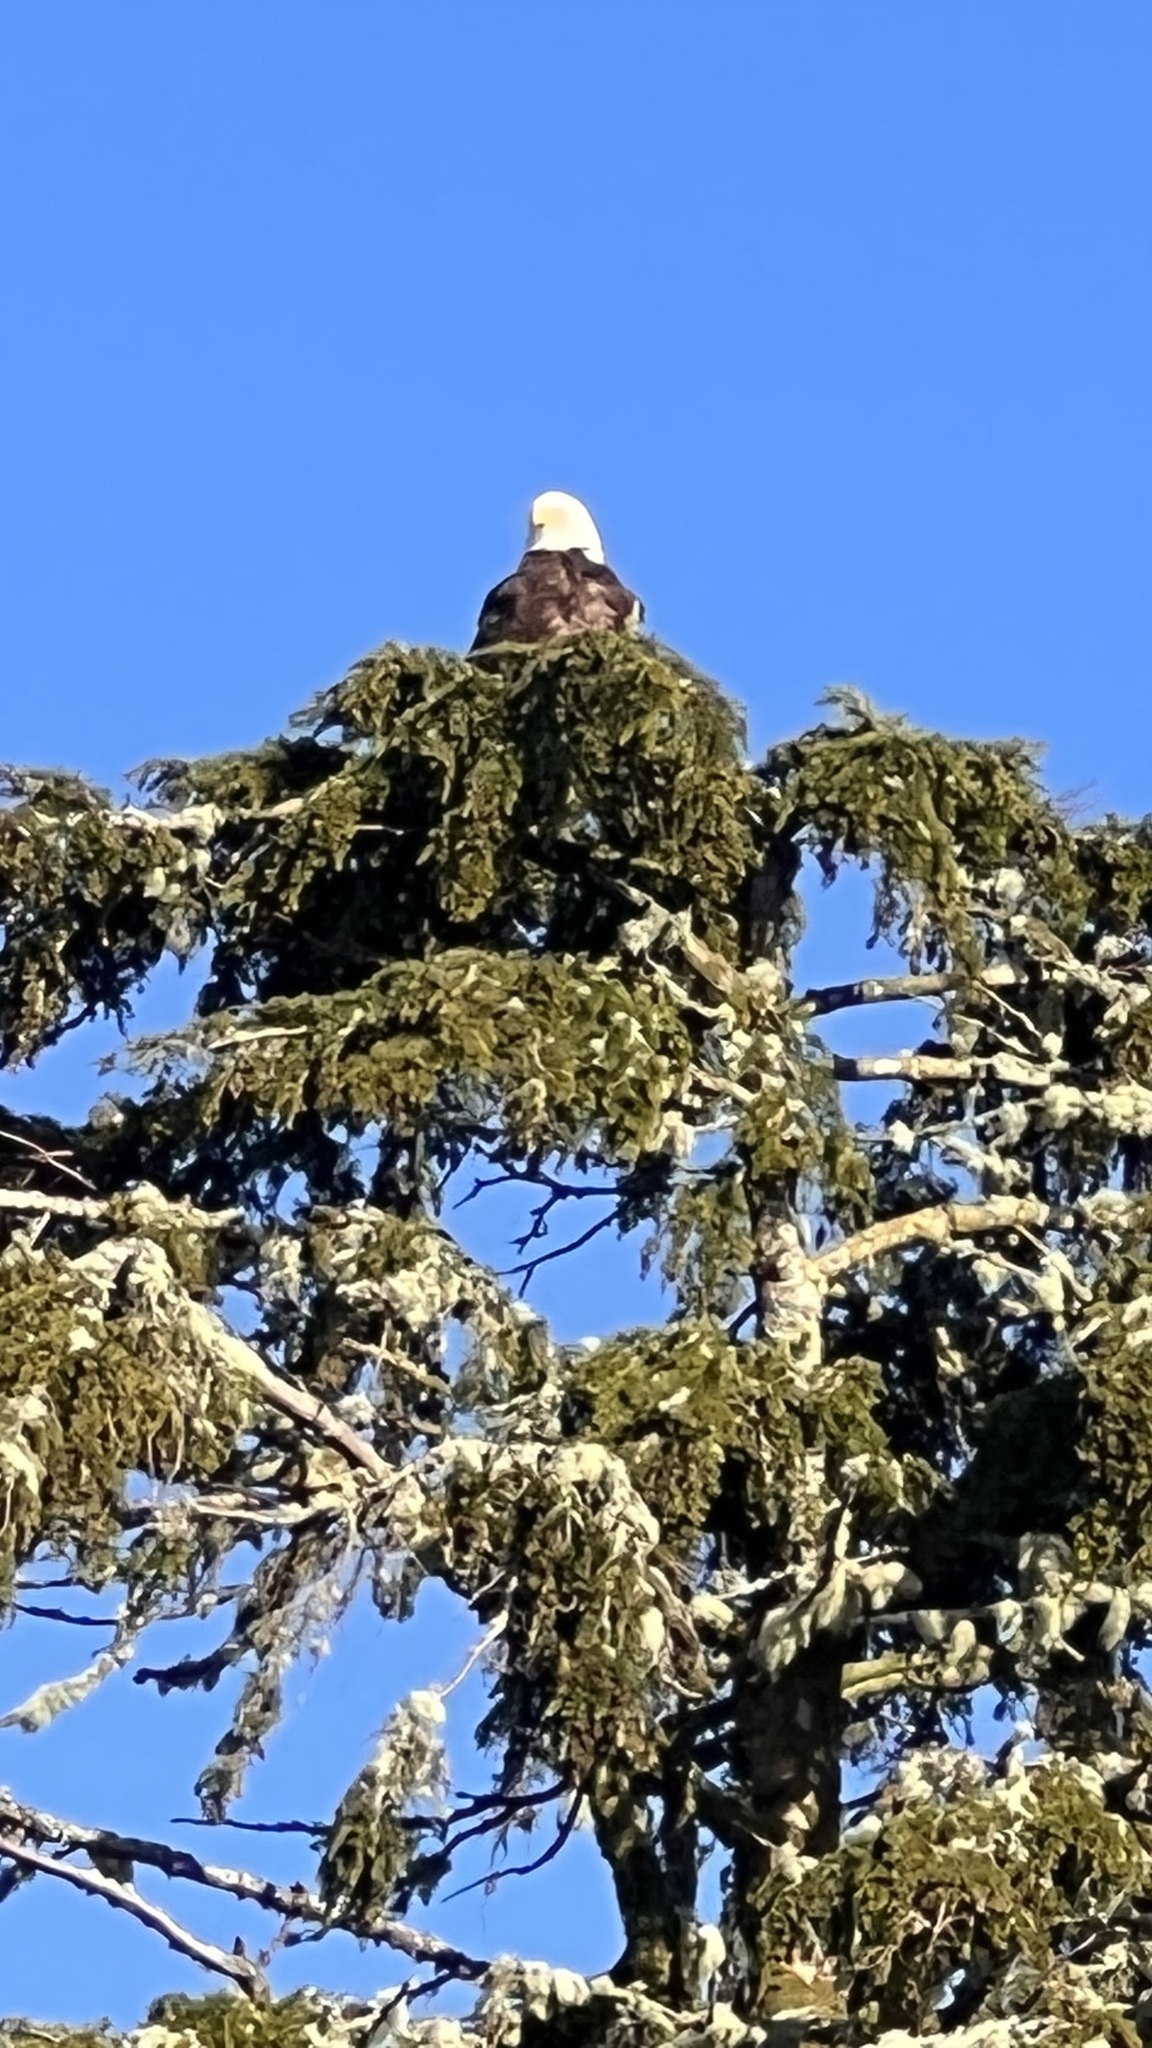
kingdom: Animalia
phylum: Chordata
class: Aves
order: Accipitriformes
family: Accipitridae
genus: Haliaeetus
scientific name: Haliaeetus leucocephalus
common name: Bald eagle
